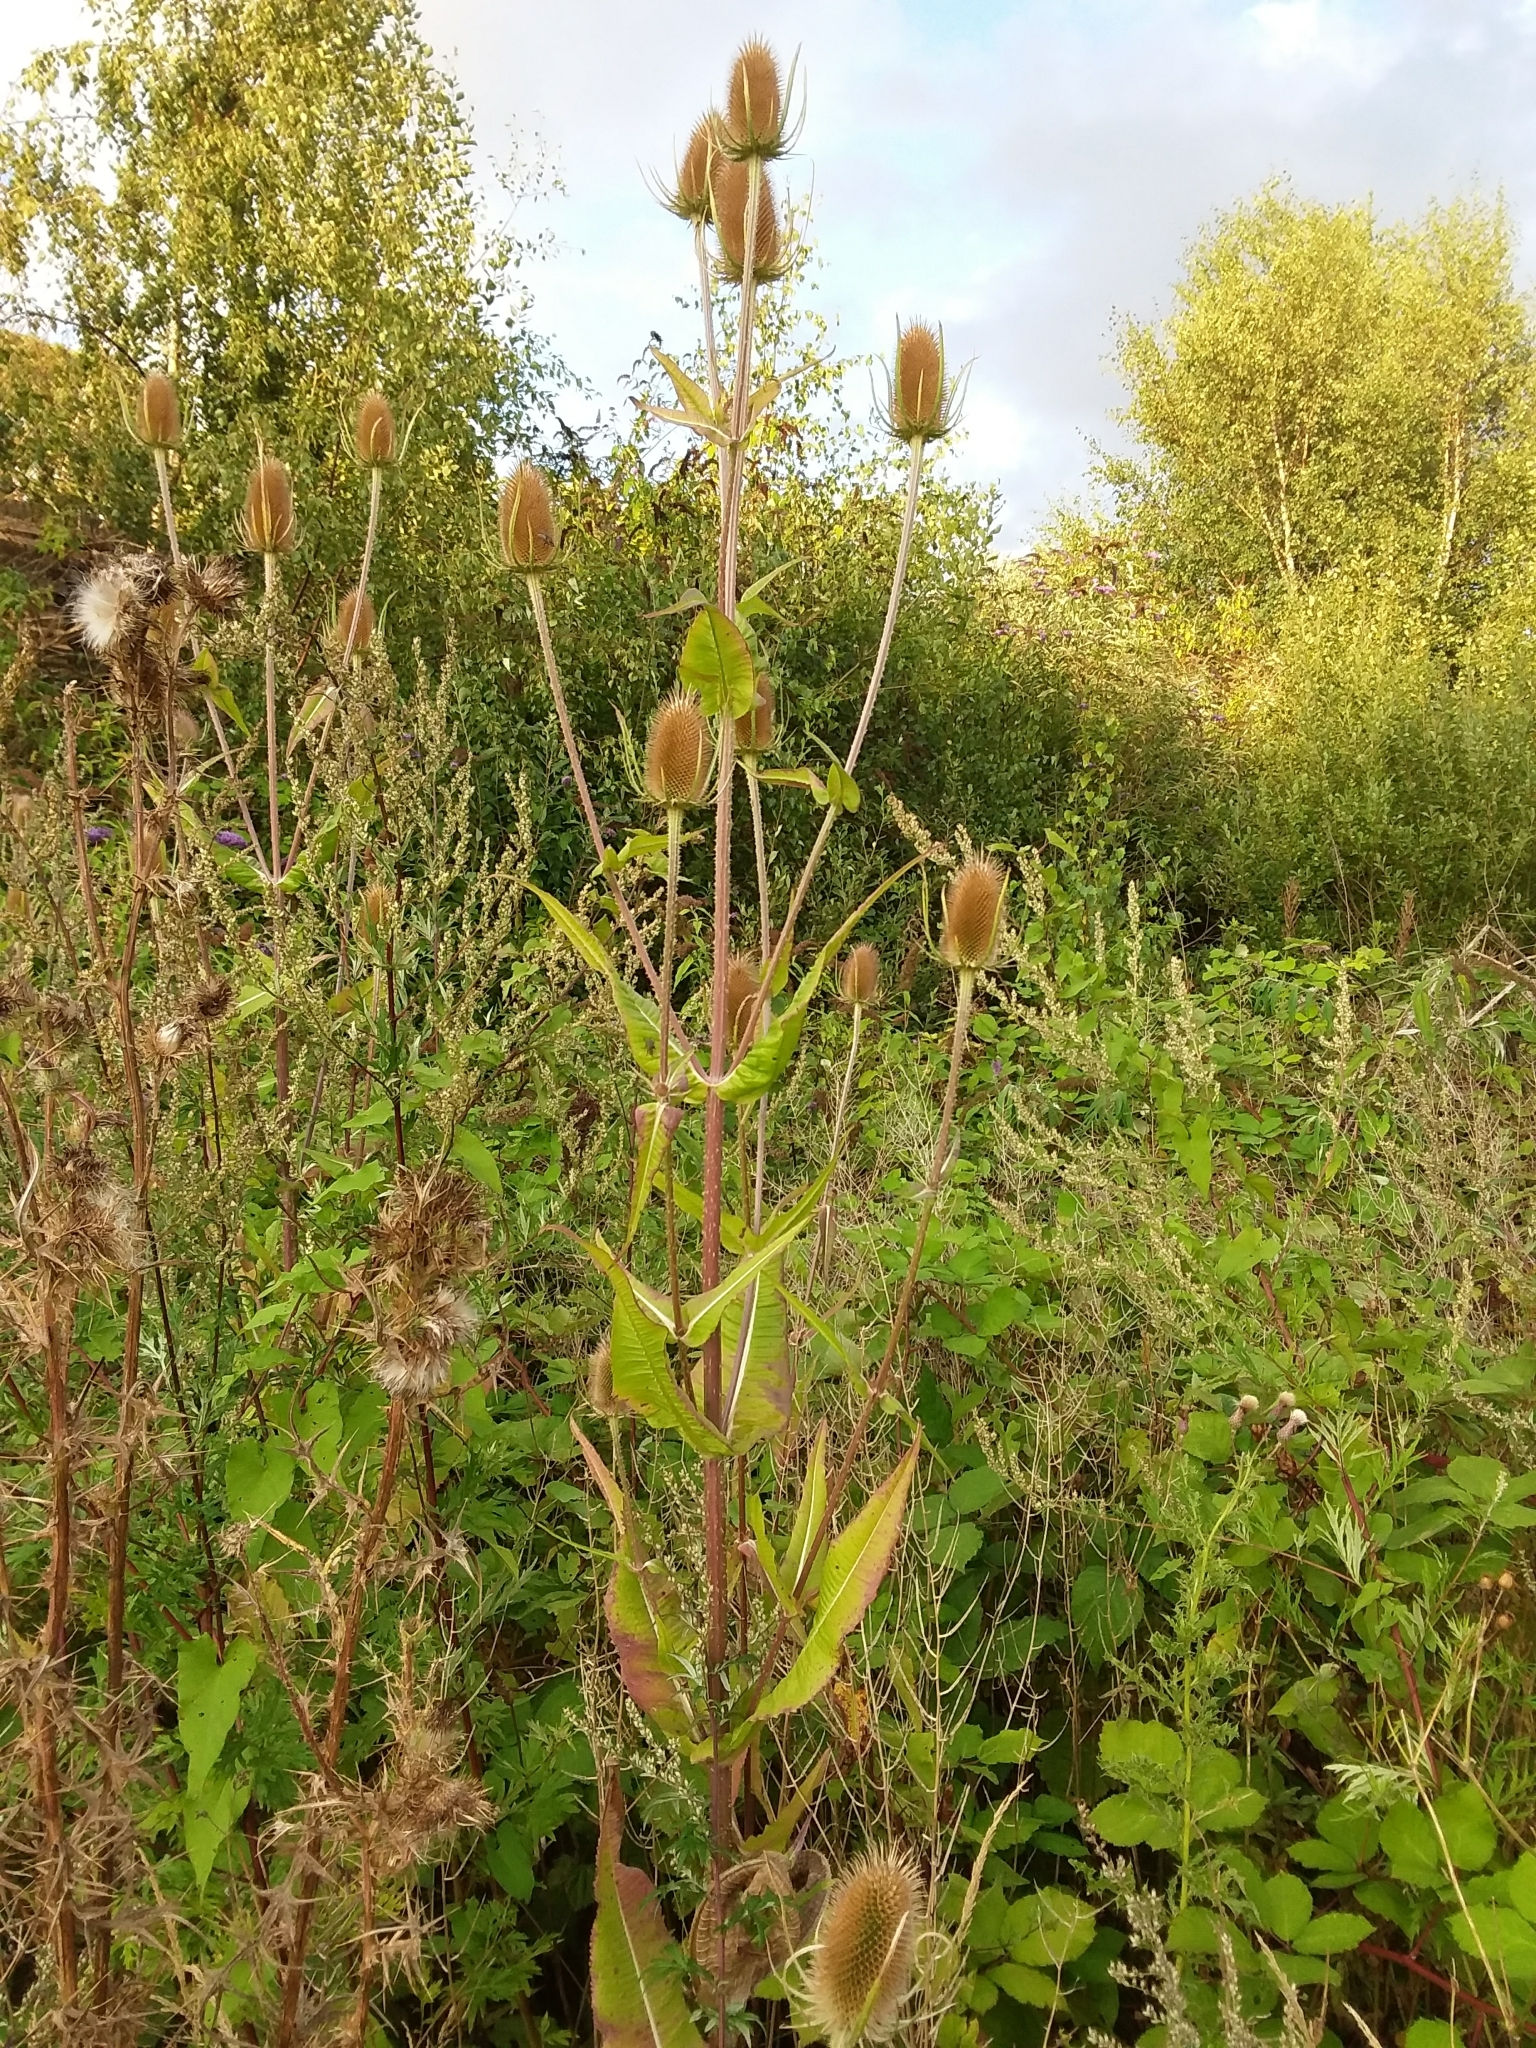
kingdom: Plantae
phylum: Tracheophyta
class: Magnoliopsida
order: Dipsacales
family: Caprifoliaceae
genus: Dipsacus
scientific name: Dipsacus fullonum
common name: Teasel
